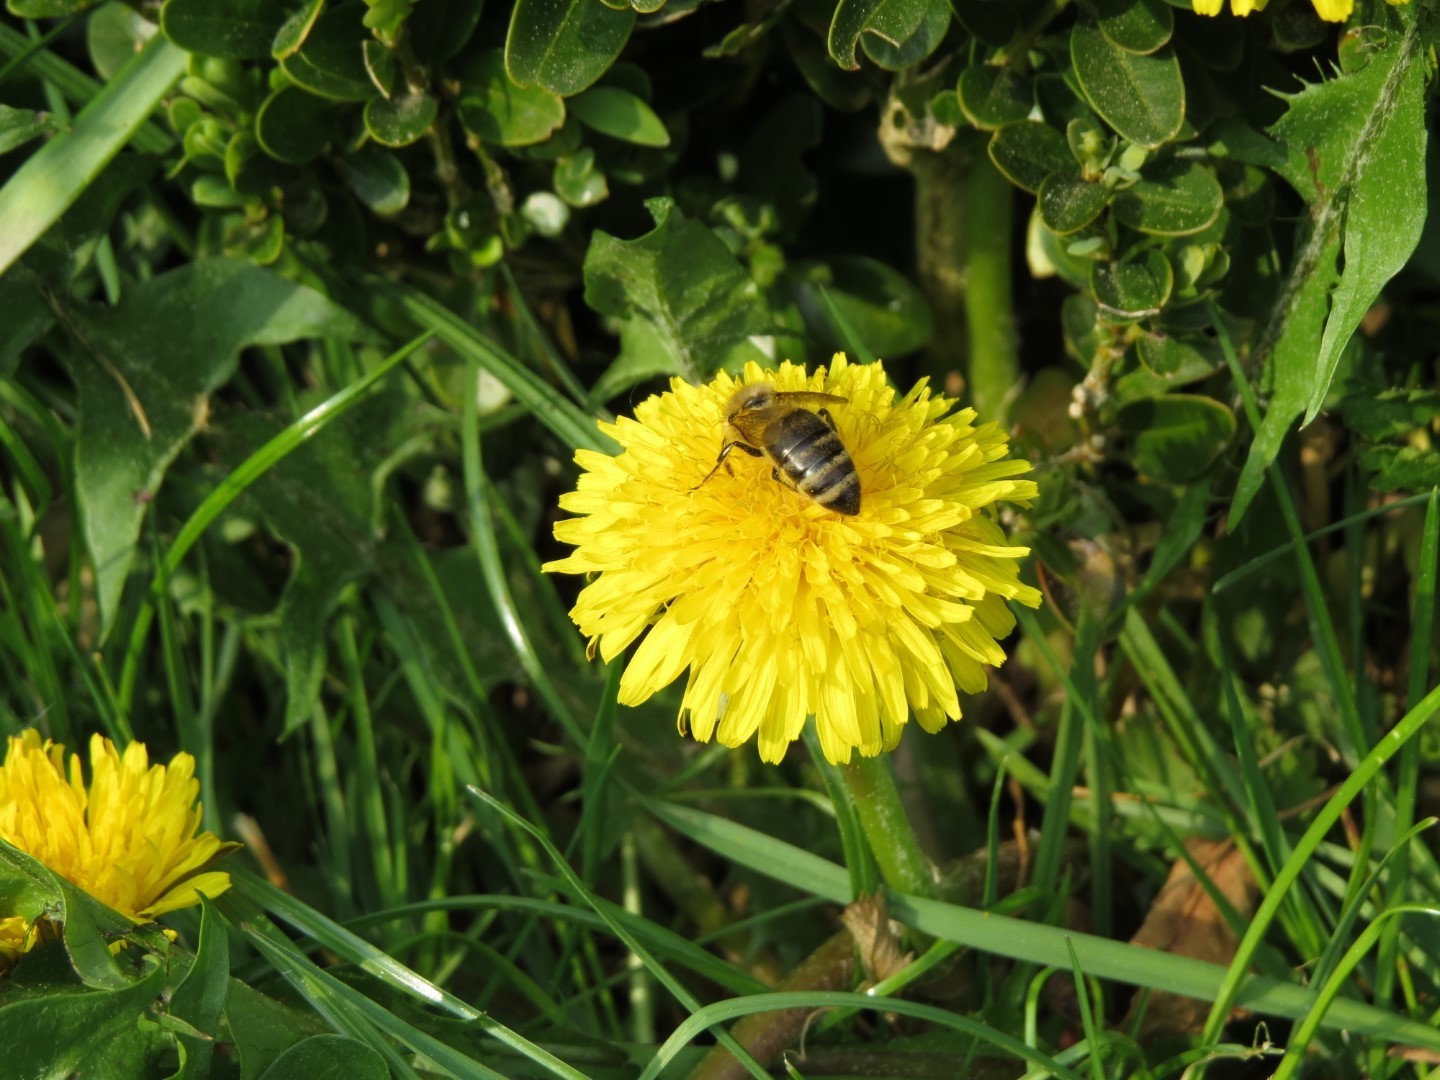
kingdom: Animalia
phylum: Arthropoda
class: Insecta
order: Hymenoptera
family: Apidae
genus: Apis
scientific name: Apis mellifera
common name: Honey bee
